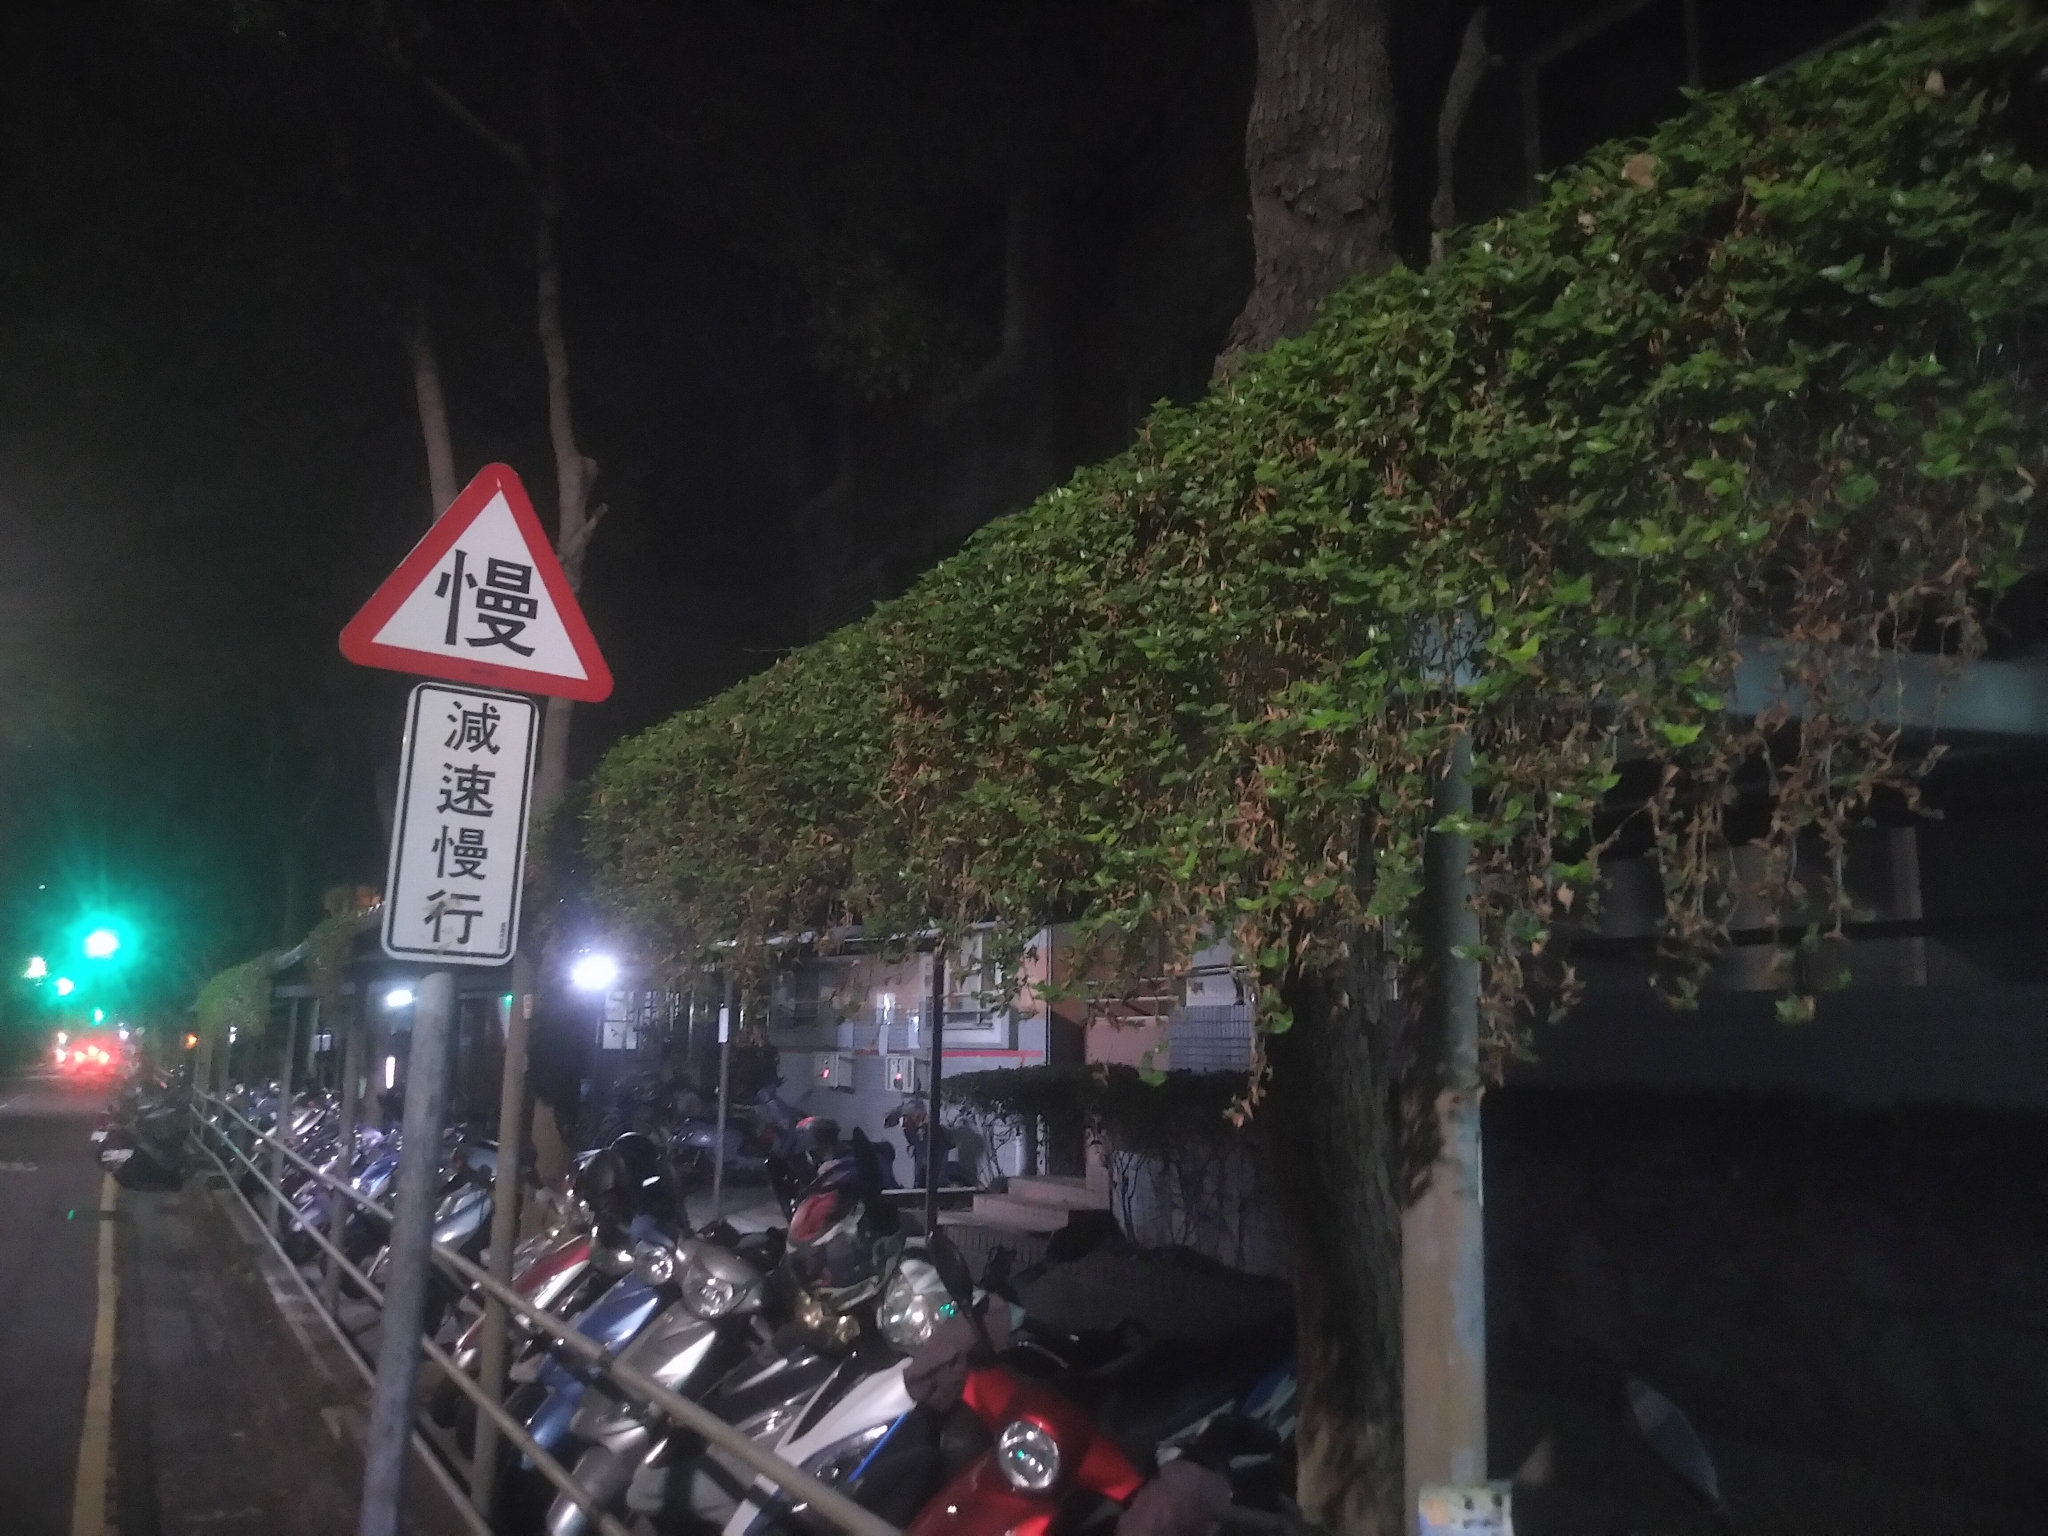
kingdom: Plantae
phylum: Tracheophyta
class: Liliopsida
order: Commelinales
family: Commelinaceae
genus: Callisia
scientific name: Callisia repens
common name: Creeping inchplant
